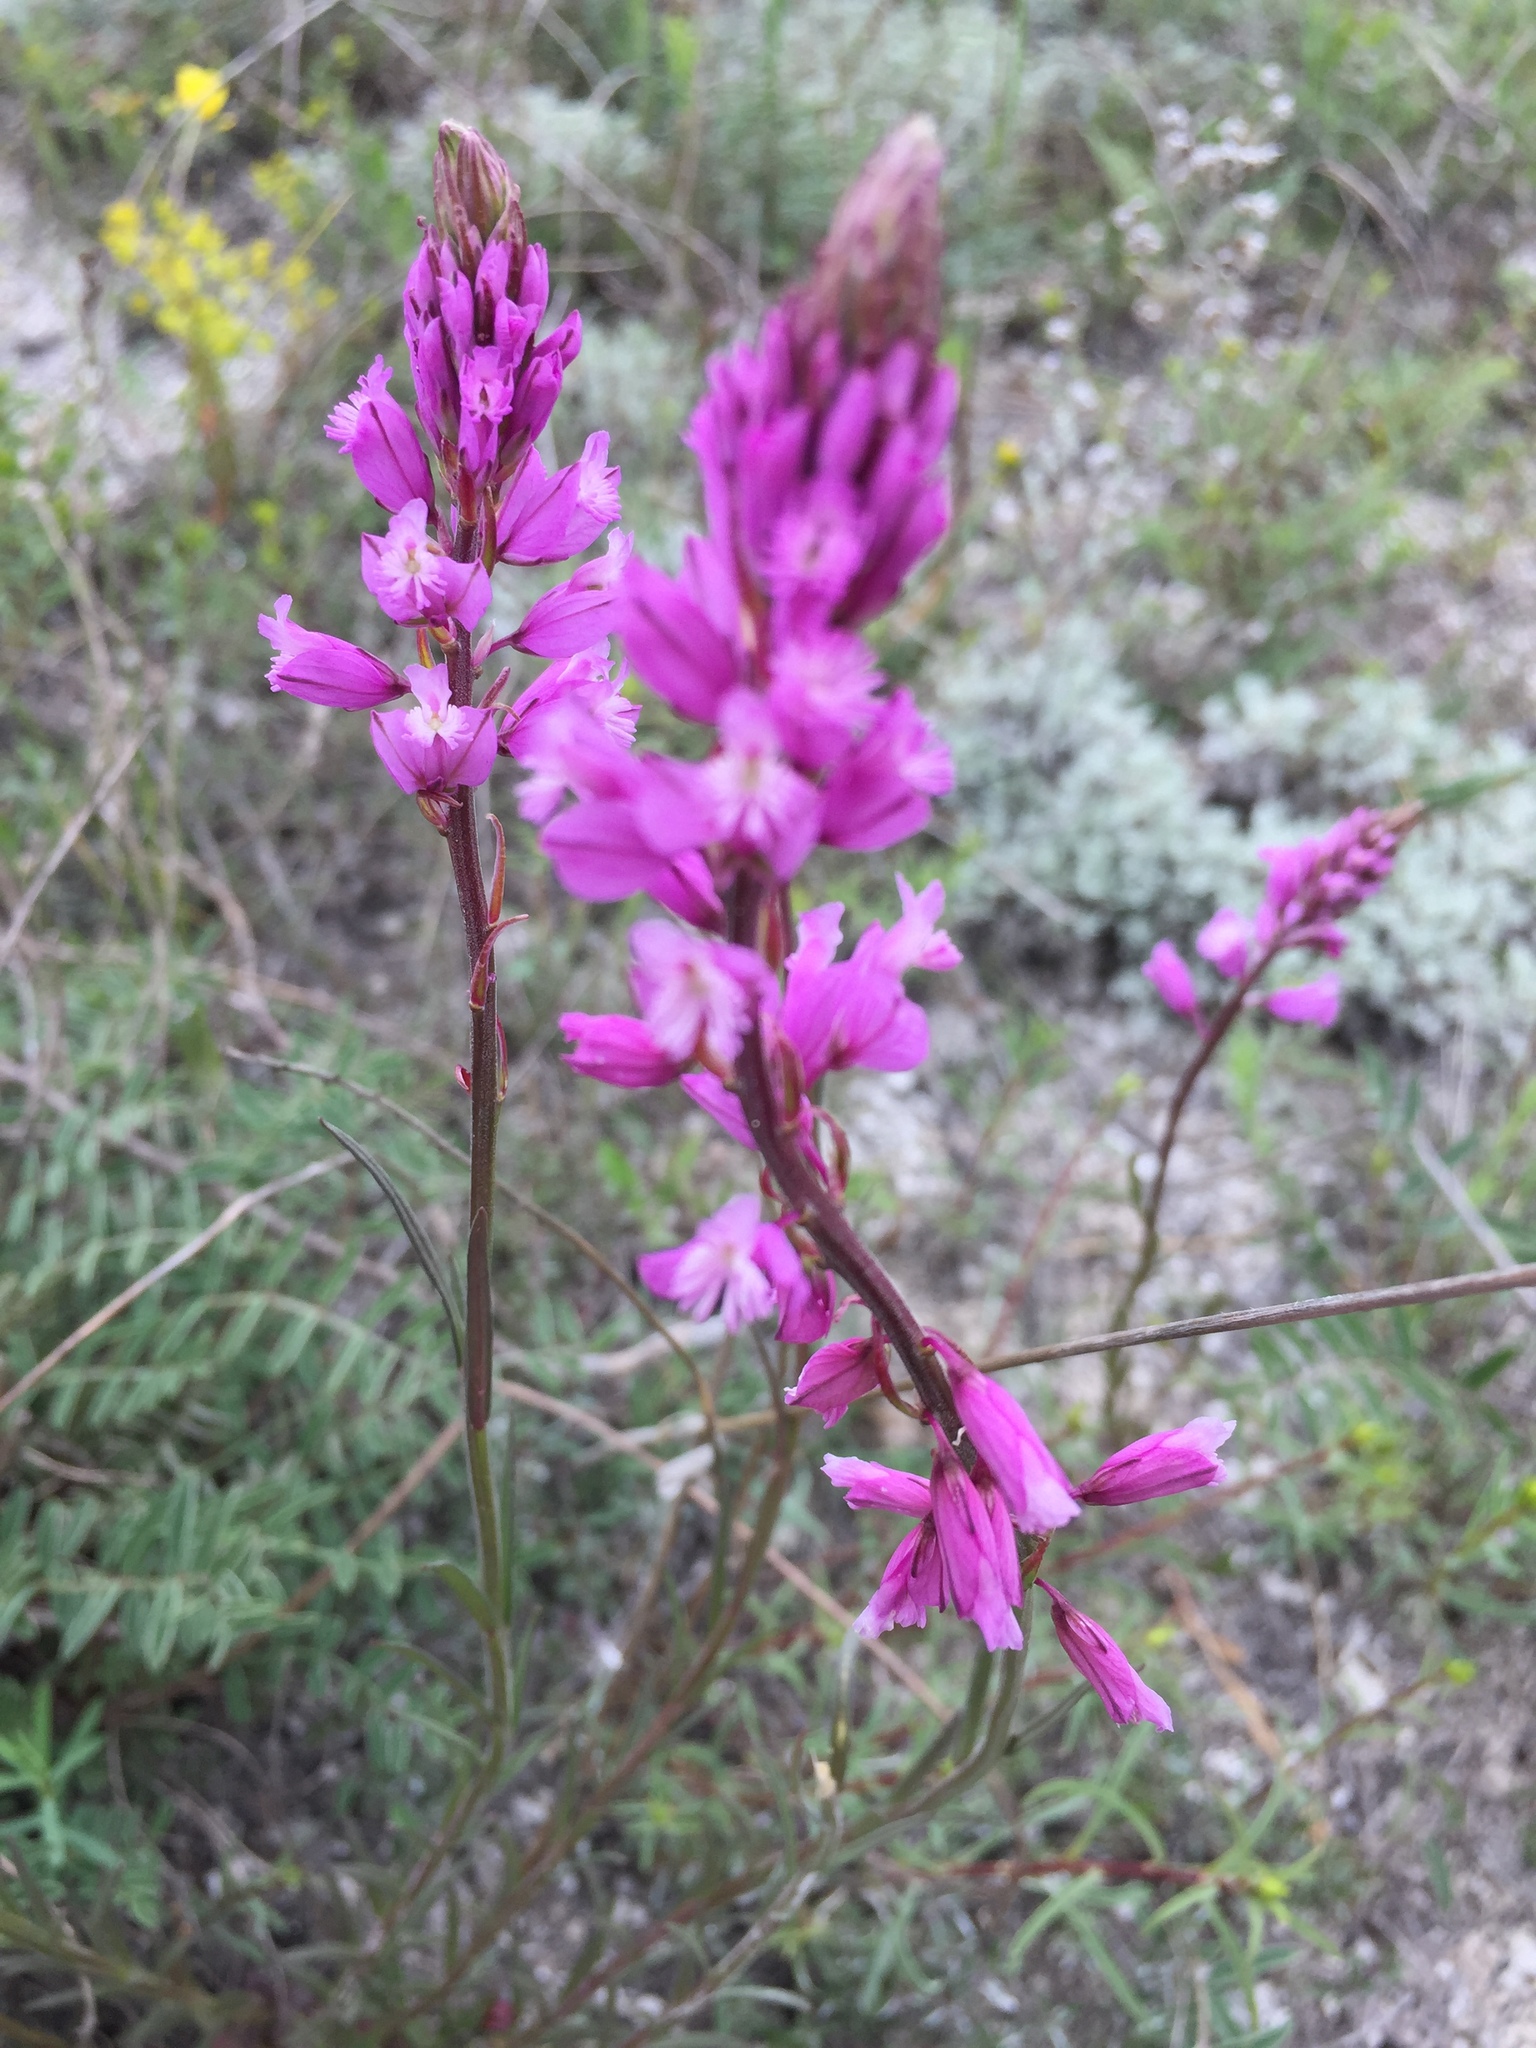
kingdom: Plantae
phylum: Tracheophyta
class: Magnoliopsida
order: Fabales
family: Polygalaceae
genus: Polygala
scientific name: Polygala nicaeensis
